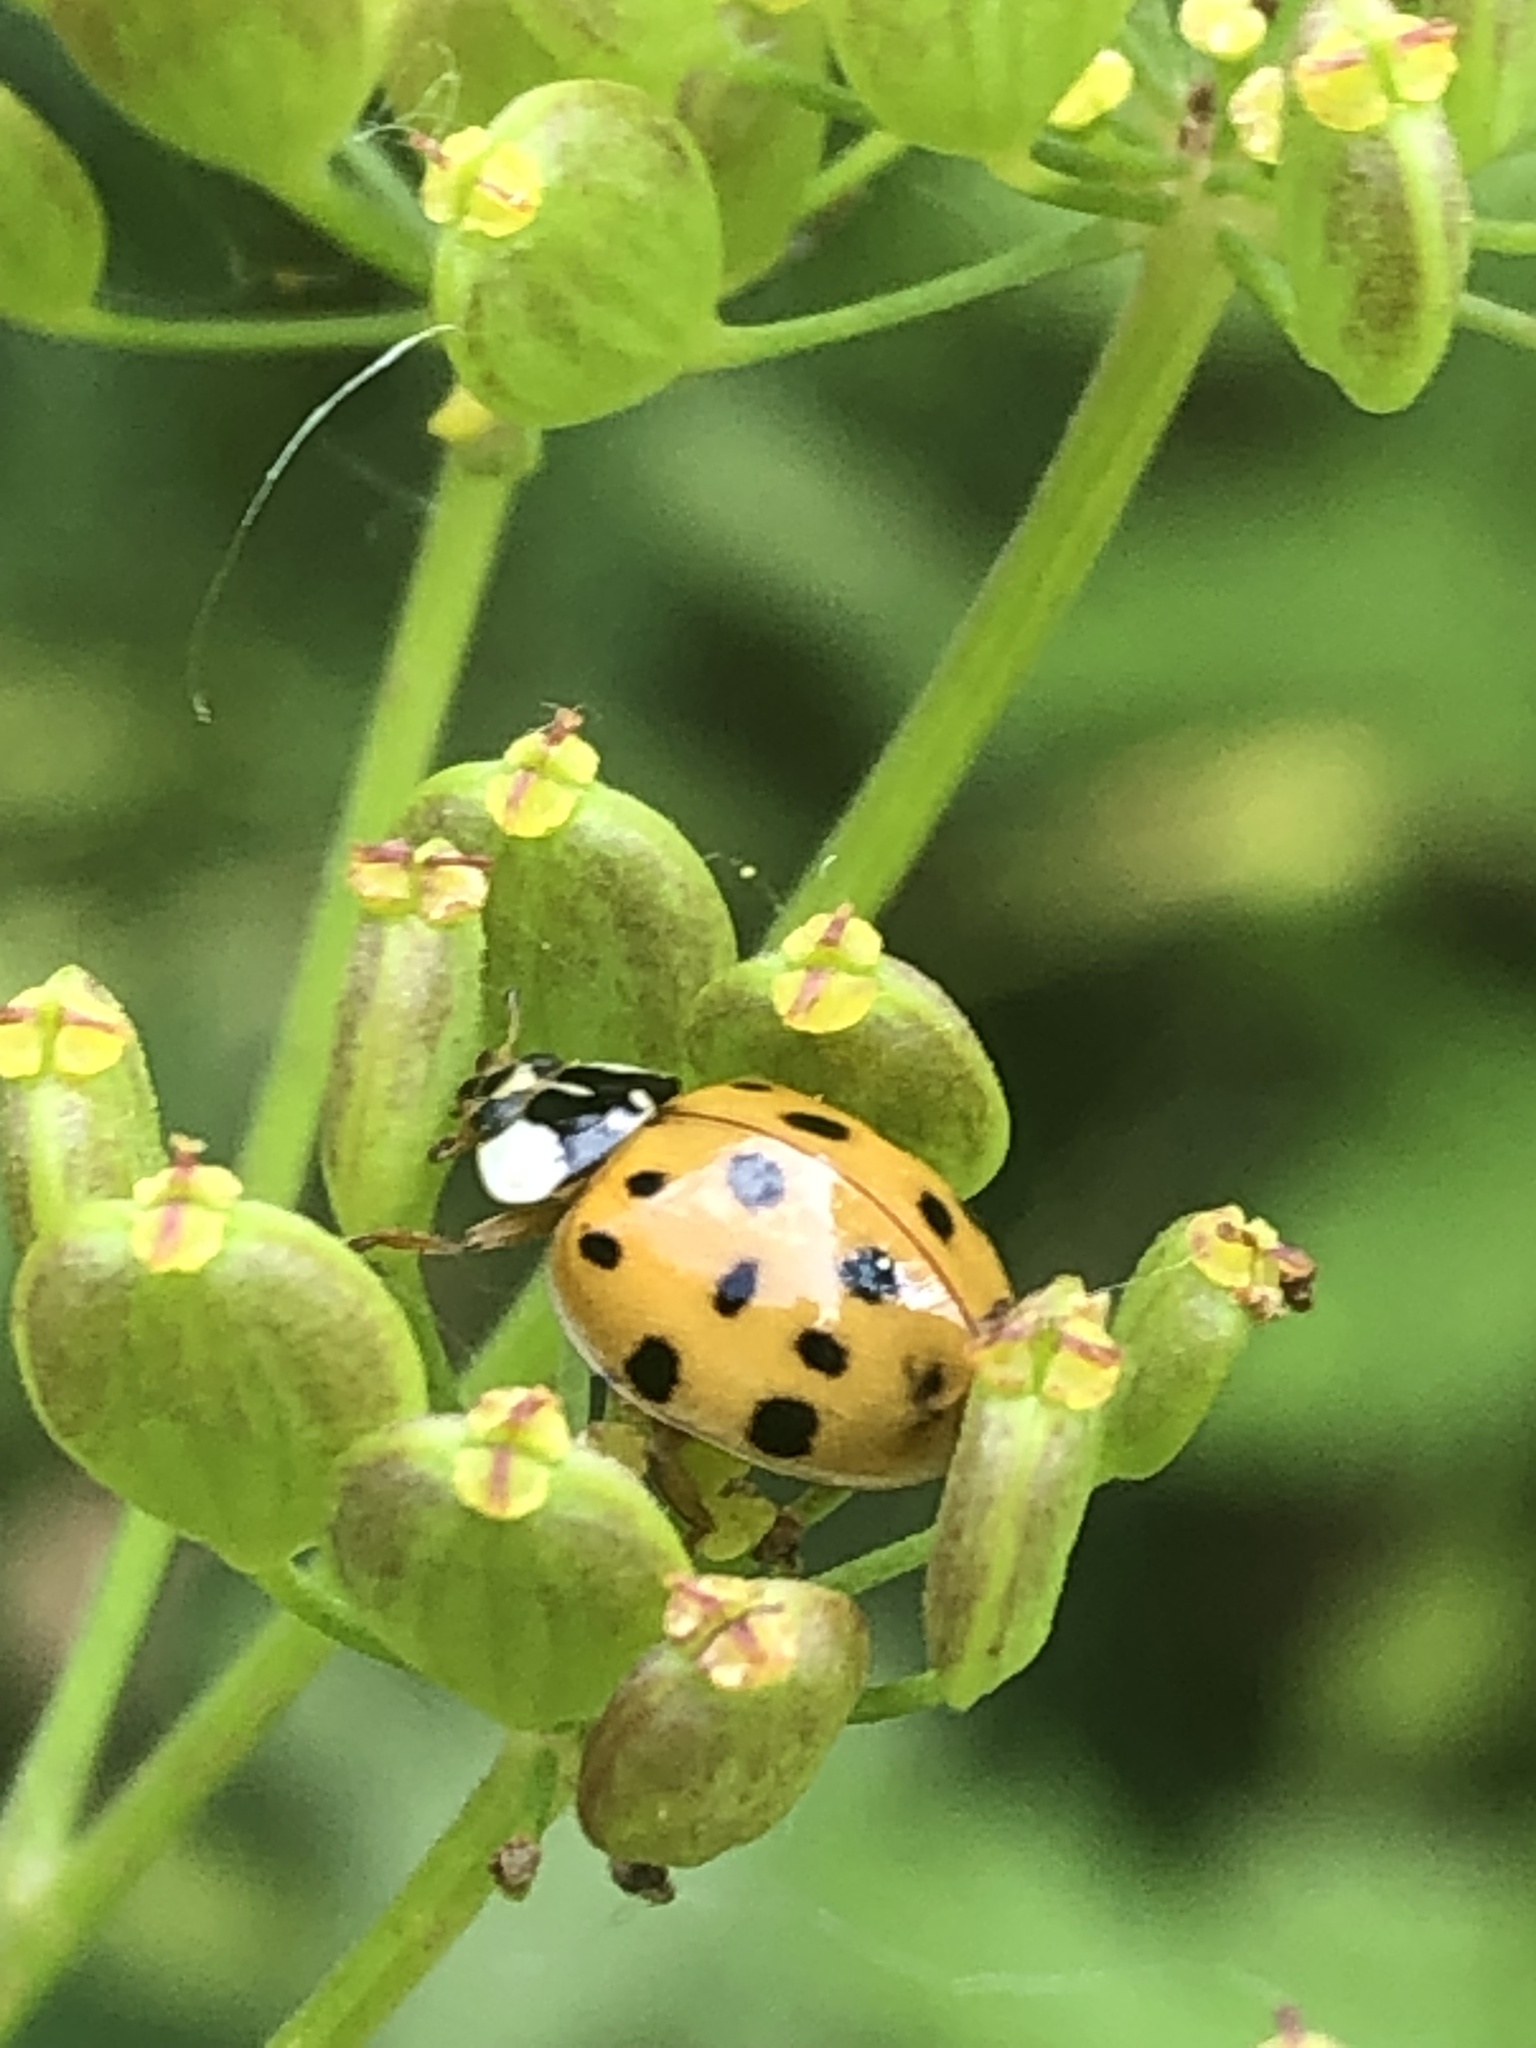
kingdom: Animalia
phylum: Arthropoda
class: Insecta
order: Coleoptera
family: Coccinellidae
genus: Harmonia
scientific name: Harmonia axyridis
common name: Harlequin ladybird
